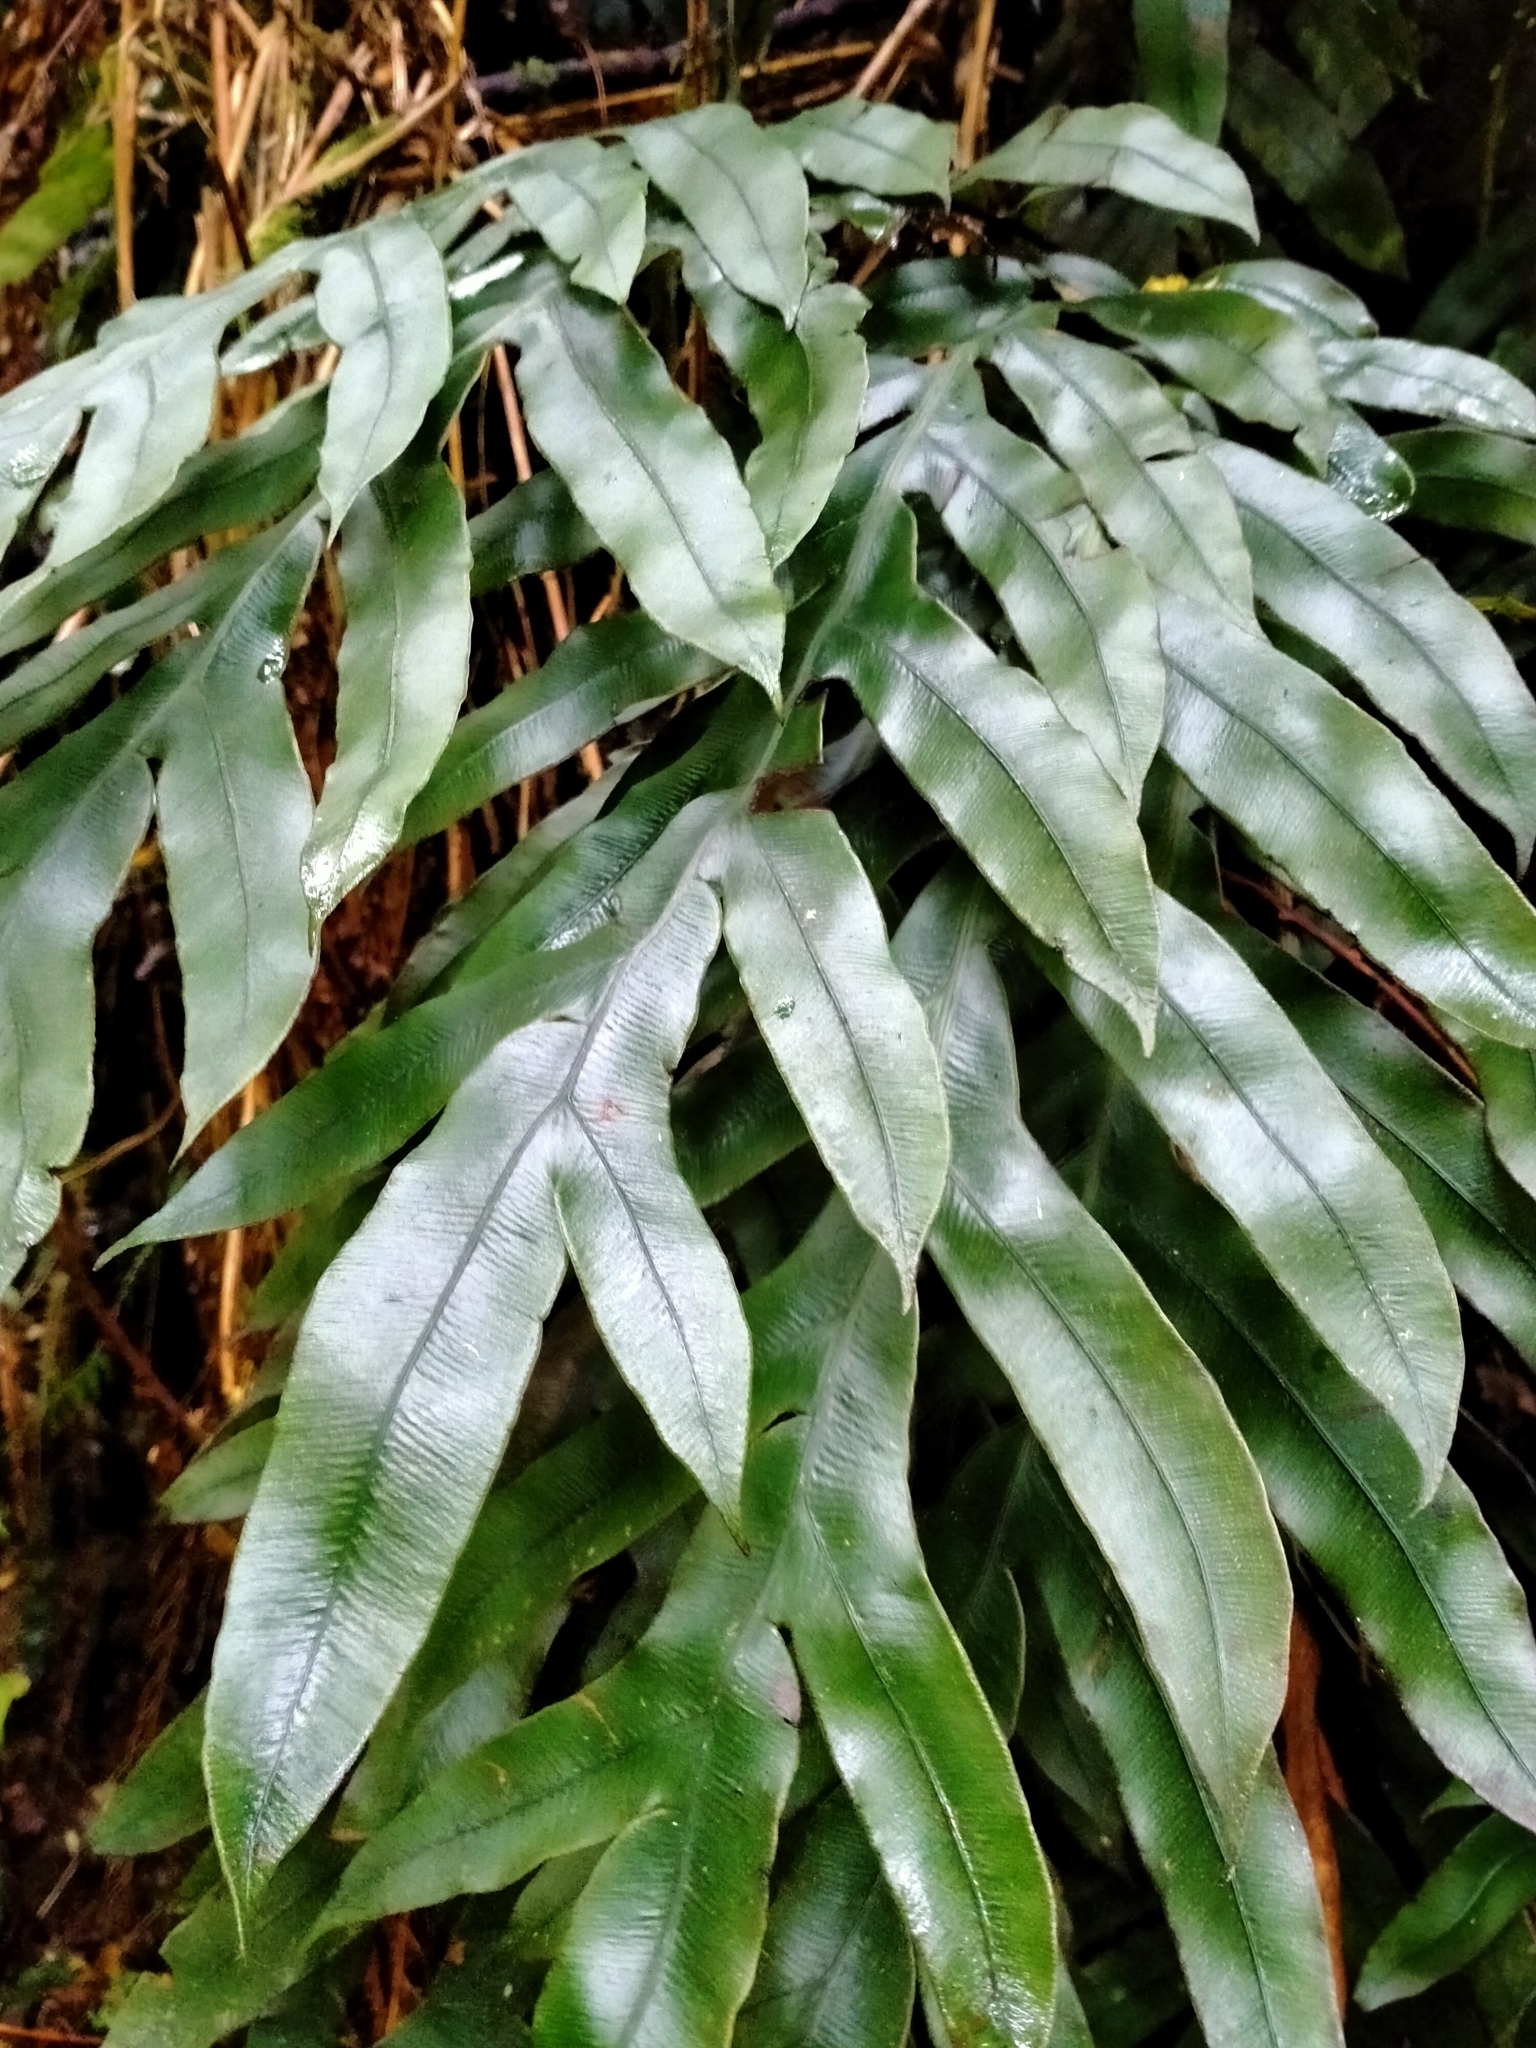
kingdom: Plantae
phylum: Tracheophyta
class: Polypodiopsida
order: Polypodiales
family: Blechnaceae
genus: Austroblechnum
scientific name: Austroblechnum colensoi
